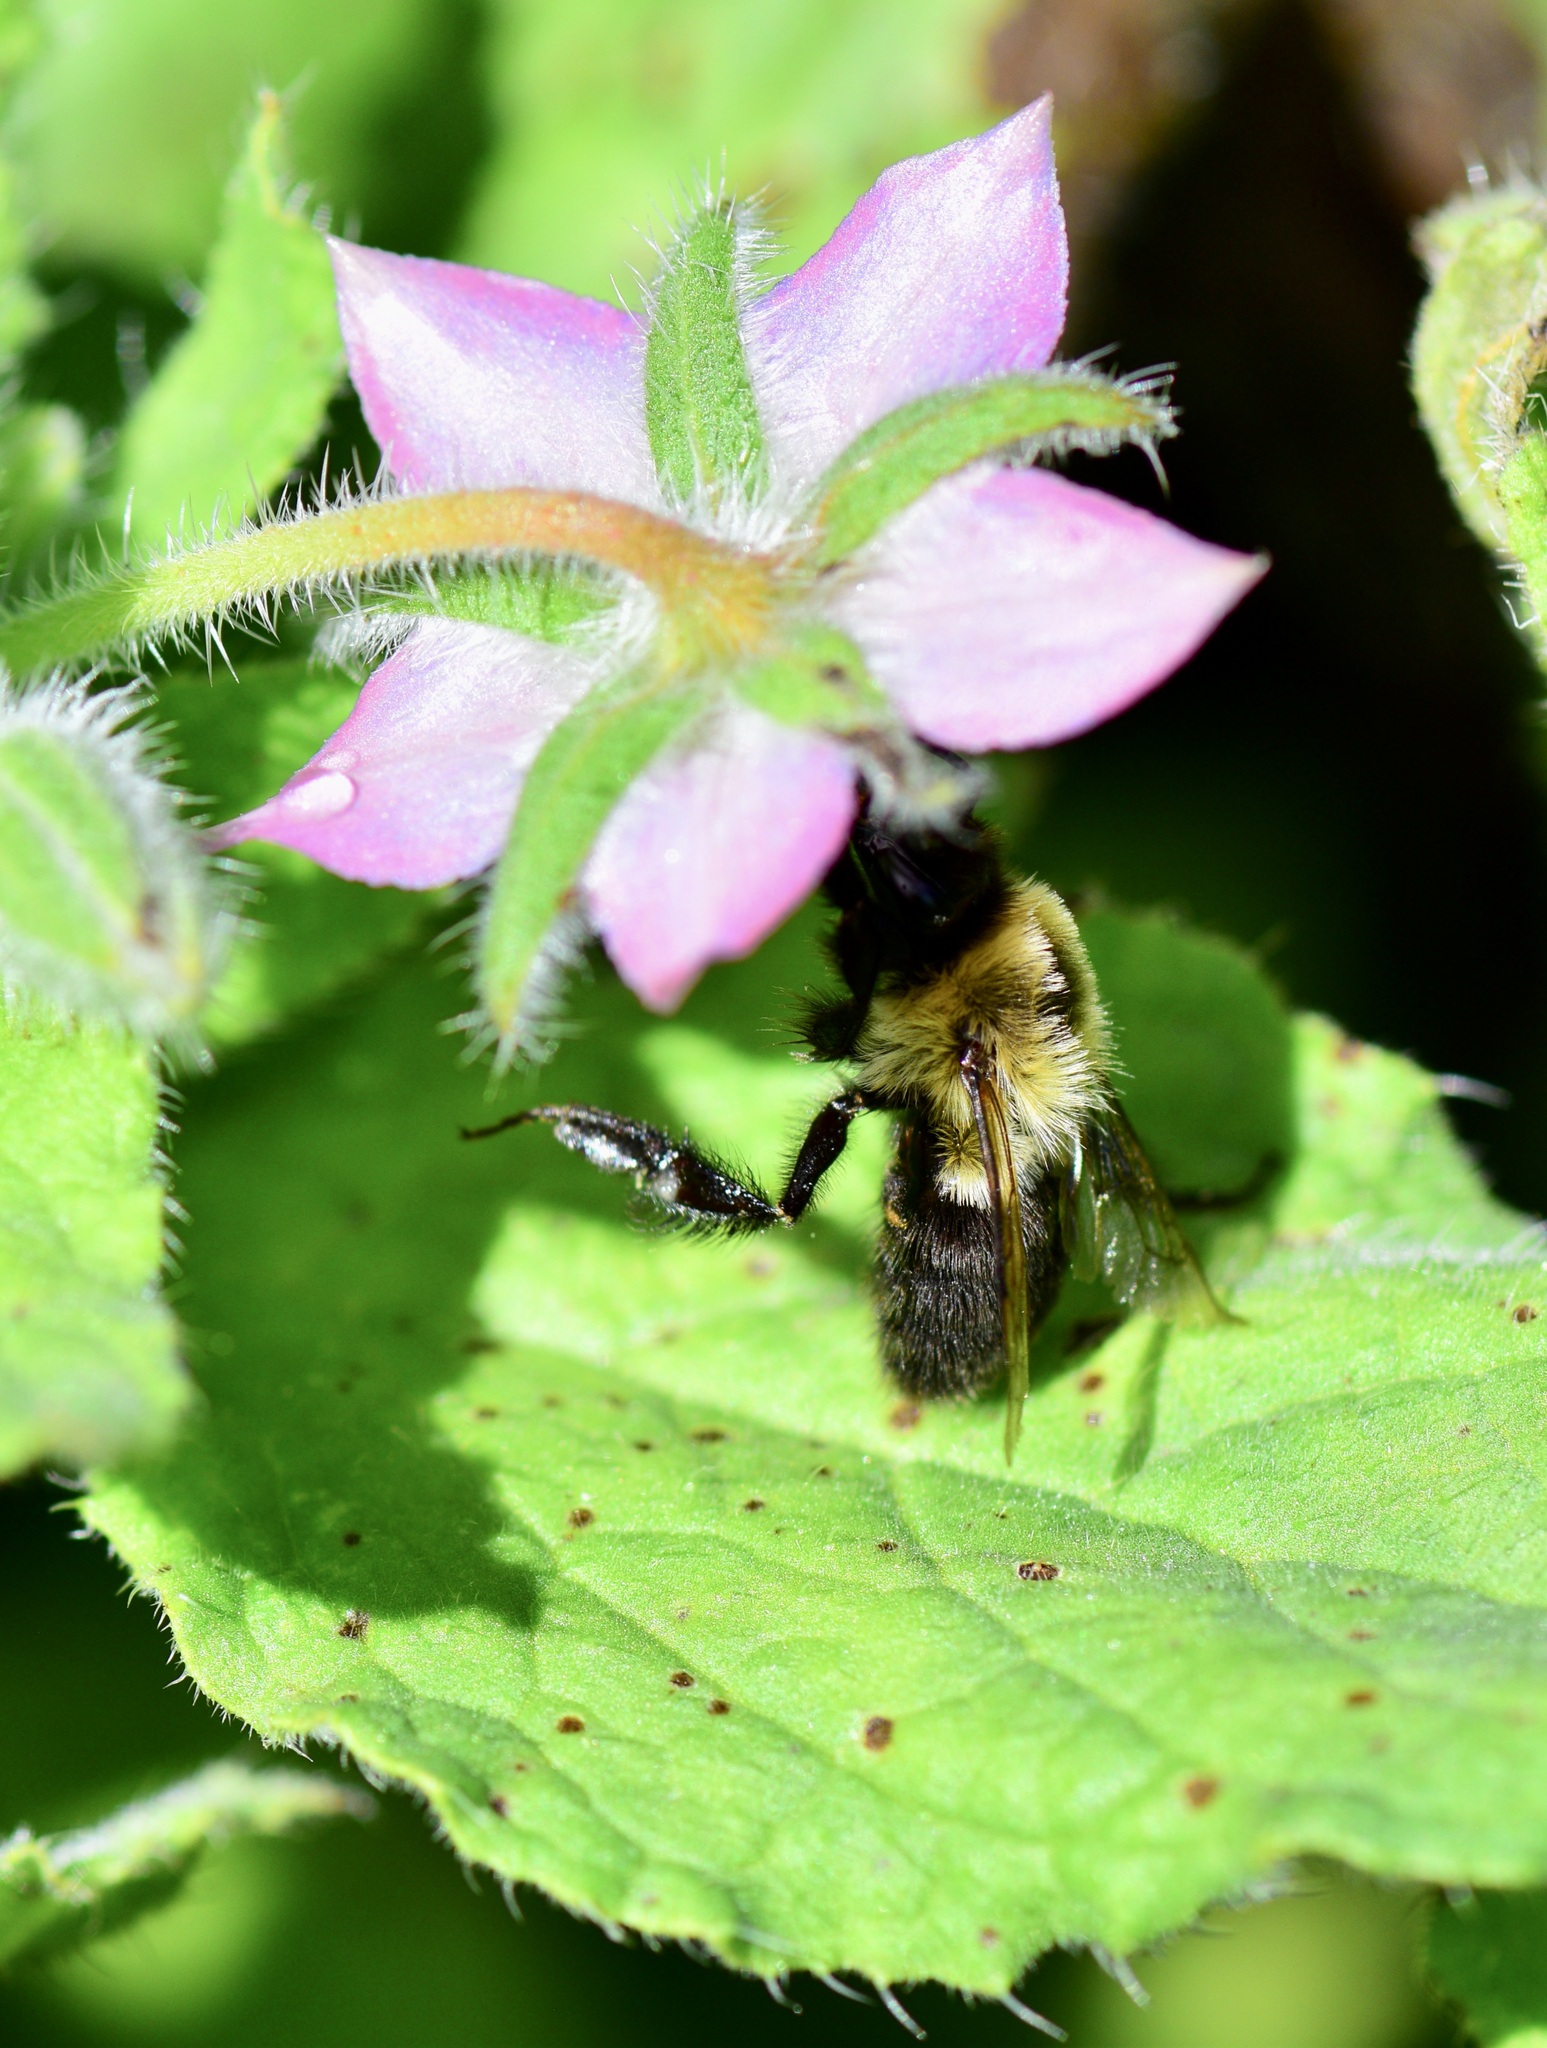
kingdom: Animalia
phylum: Arthropoda
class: Insecta
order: Hymenoptera
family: Apidae
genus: Bombus
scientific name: Bombus impatiens
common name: Common eastern bumble bee
